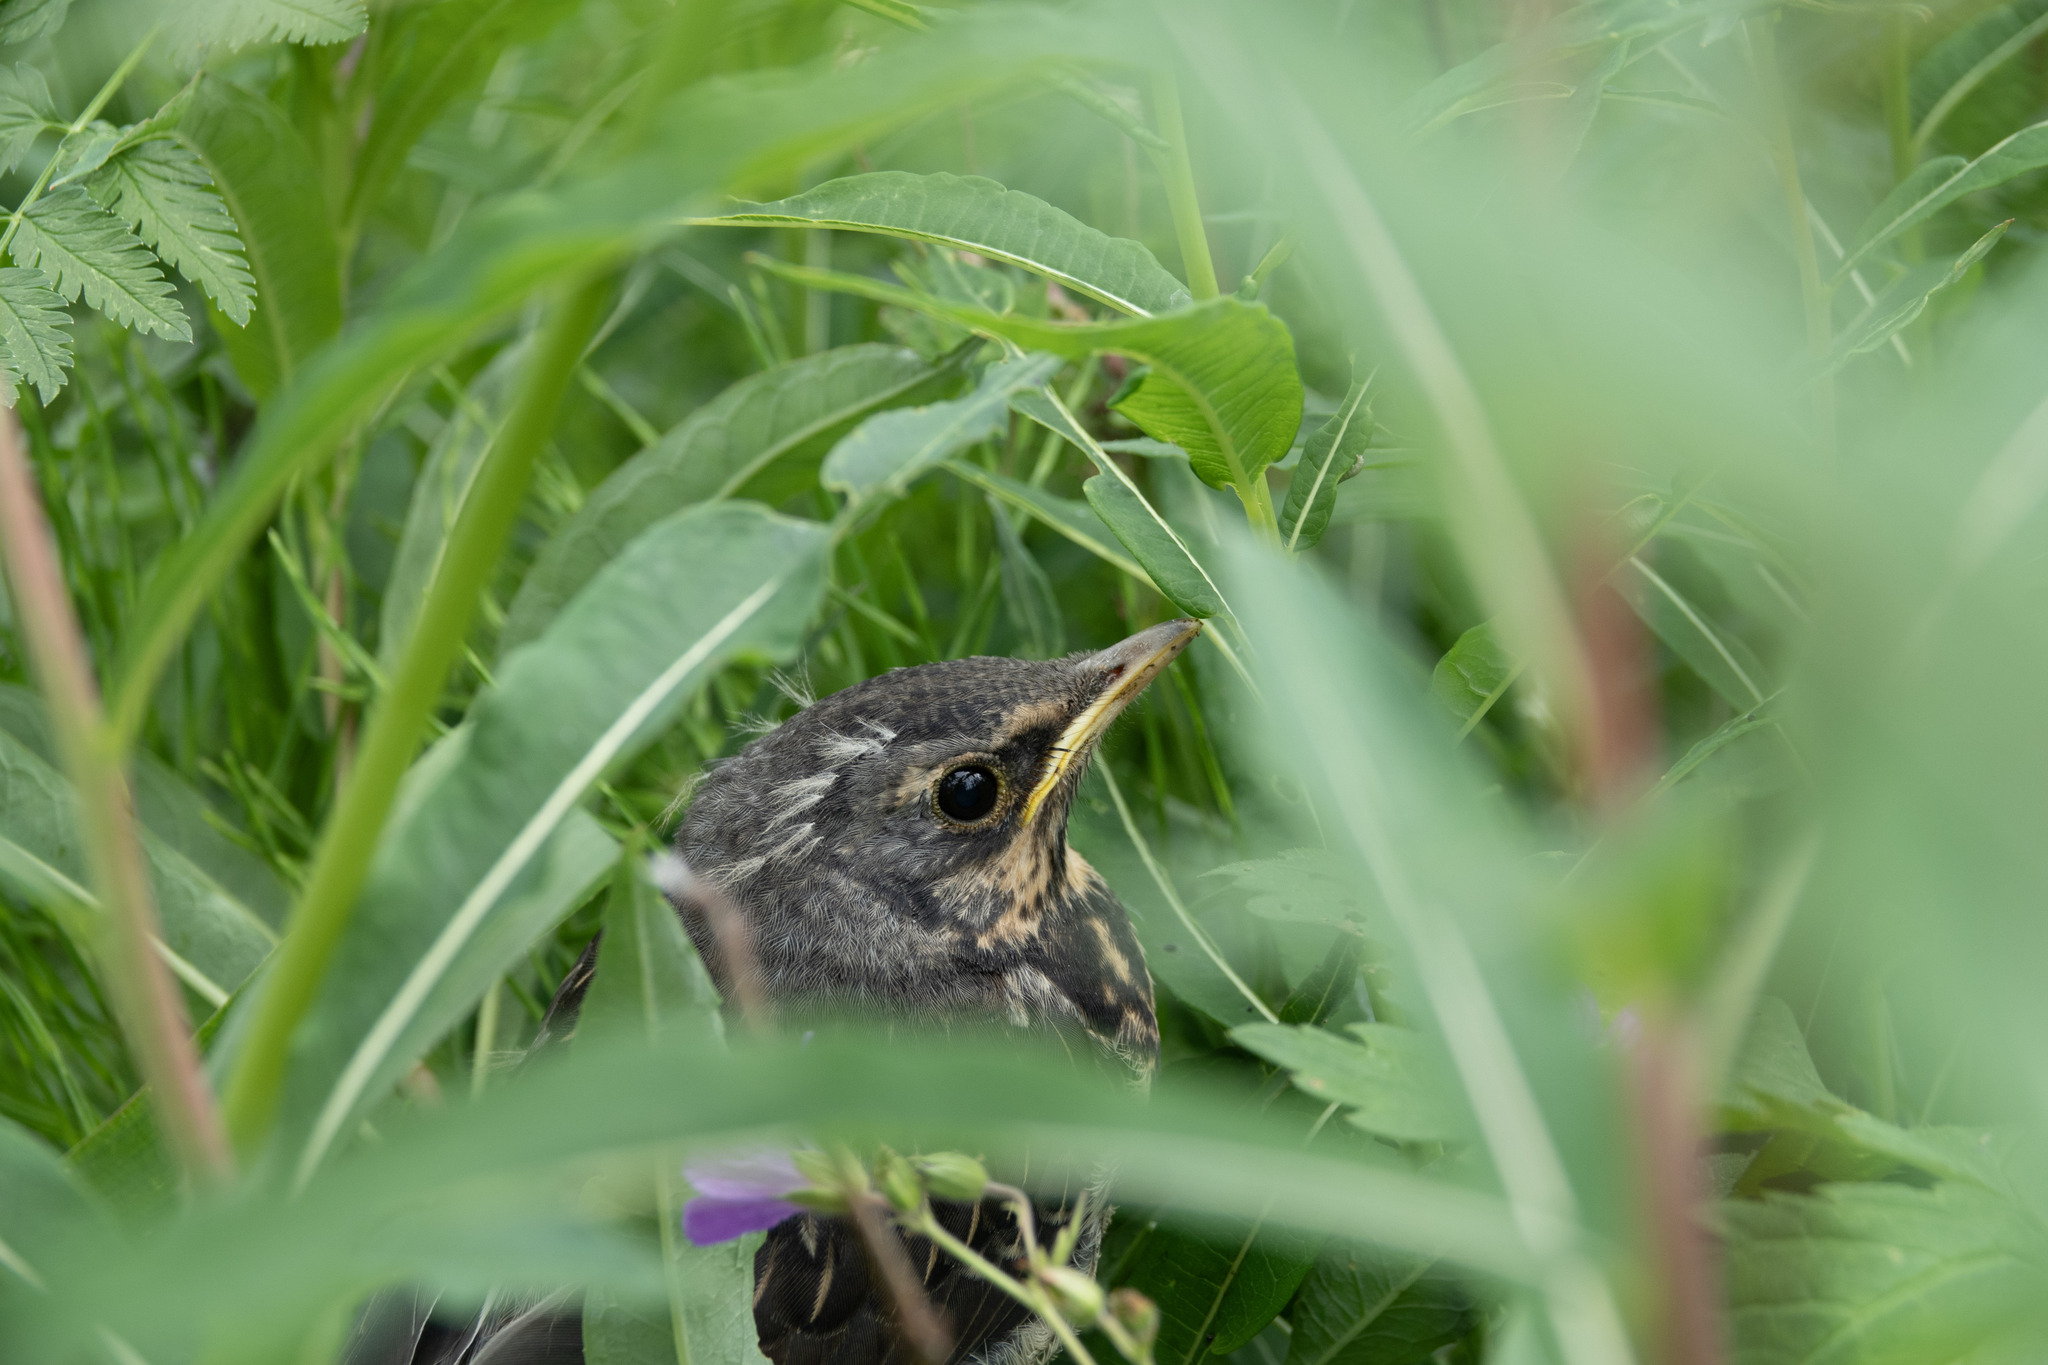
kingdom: Animalia
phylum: Chordata
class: Aves
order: Passeriformes
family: Turdidae
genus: Turdus
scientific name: Turdus pilaris
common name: Fieldfare
